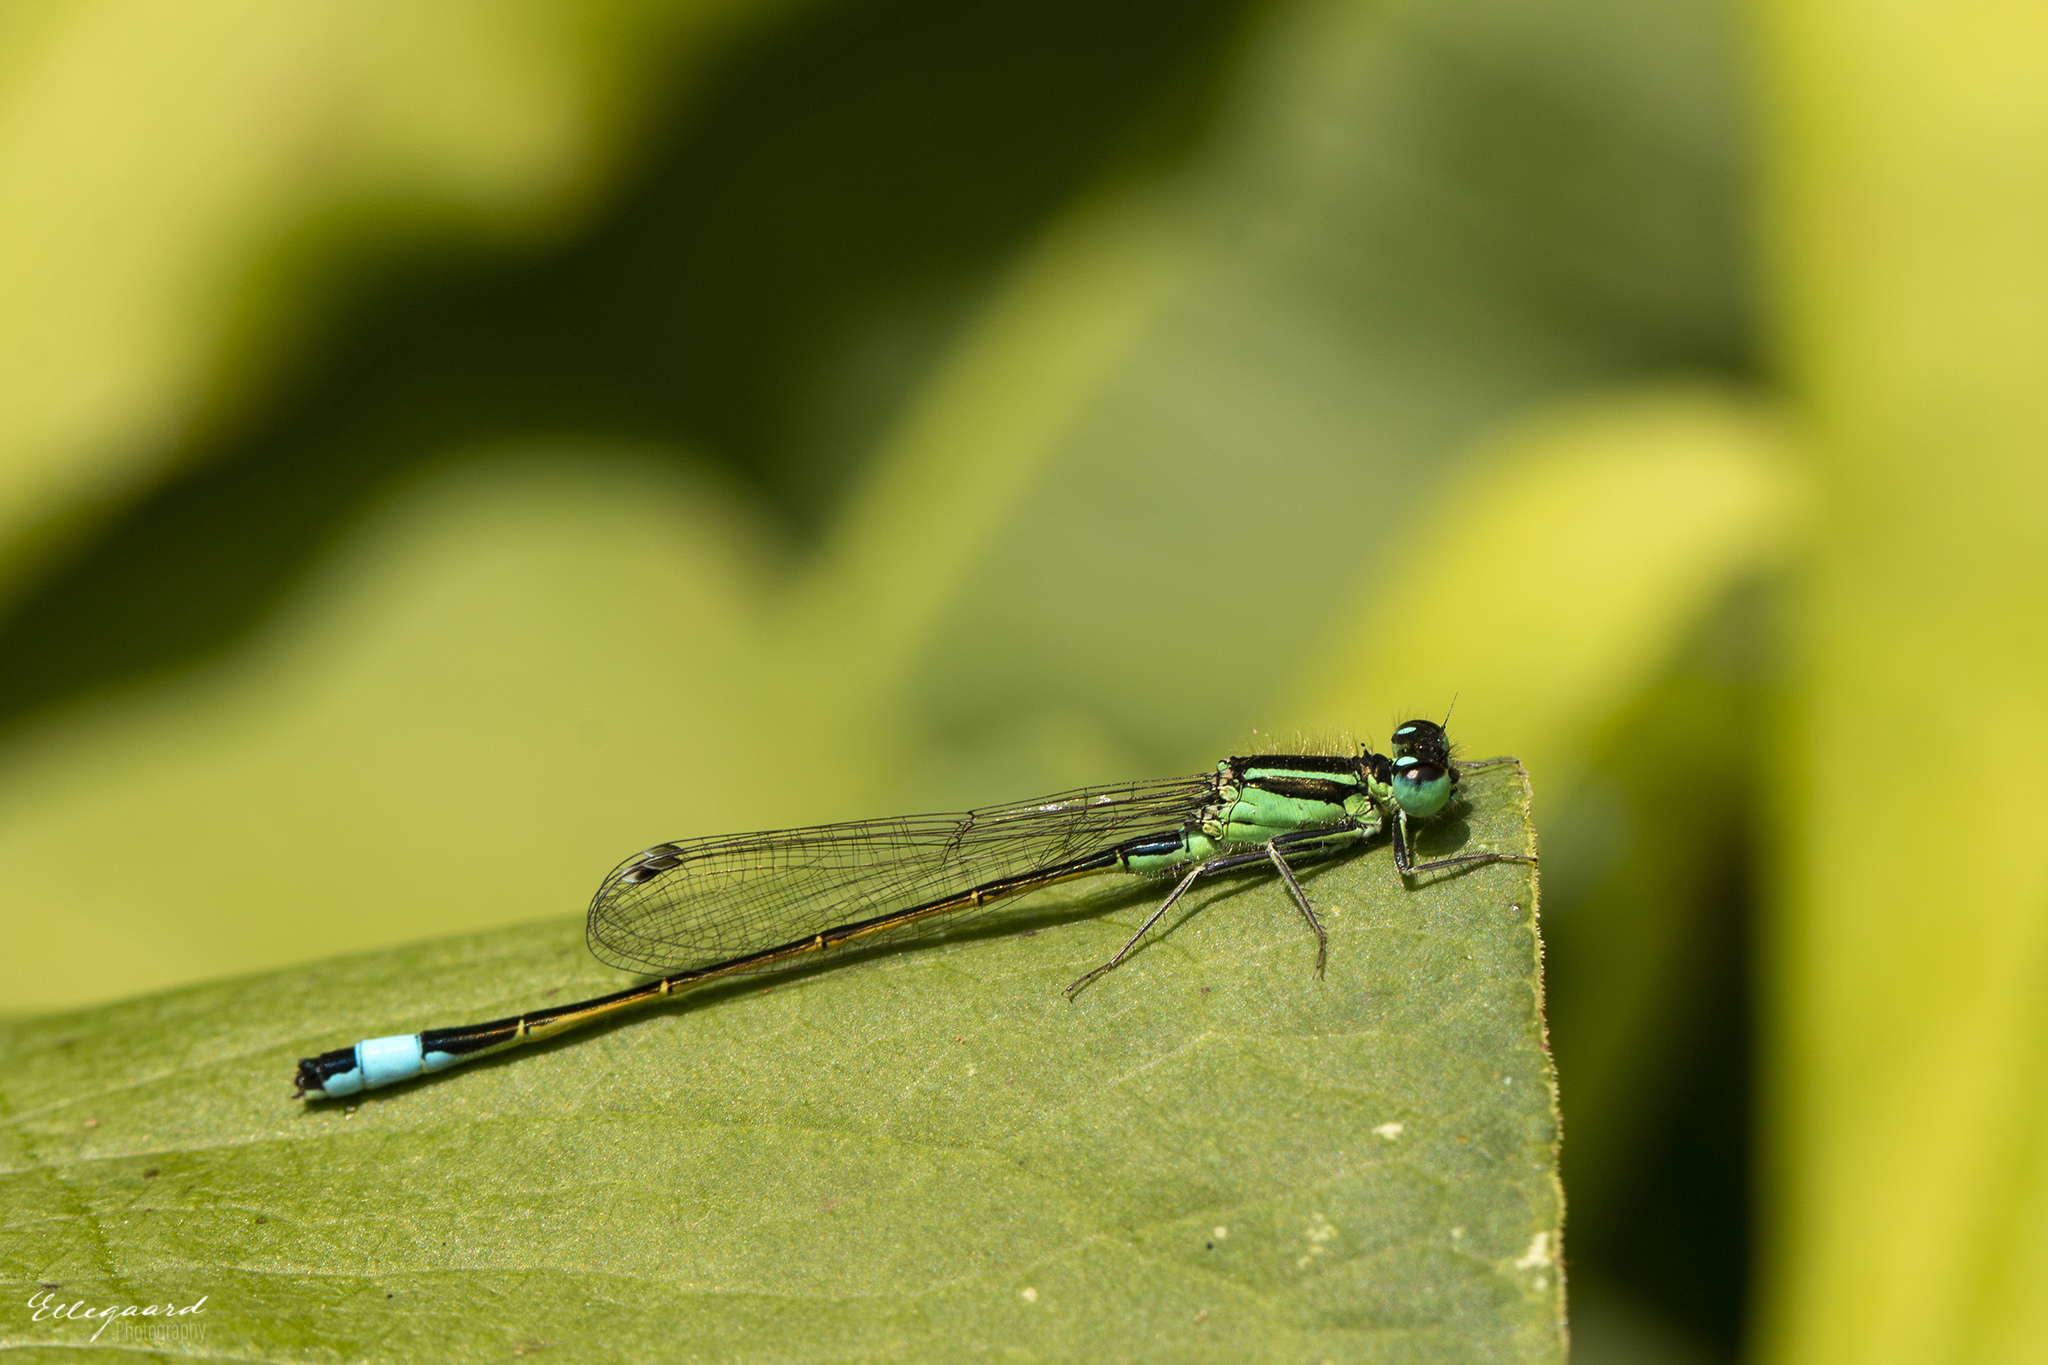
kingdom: Animalia
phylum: Arthropoda
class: Insecta
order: Odonata
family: Coenagrionidae
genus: Ischnura
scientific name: Ischnura elegans
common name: Blue-tailed damselfly
